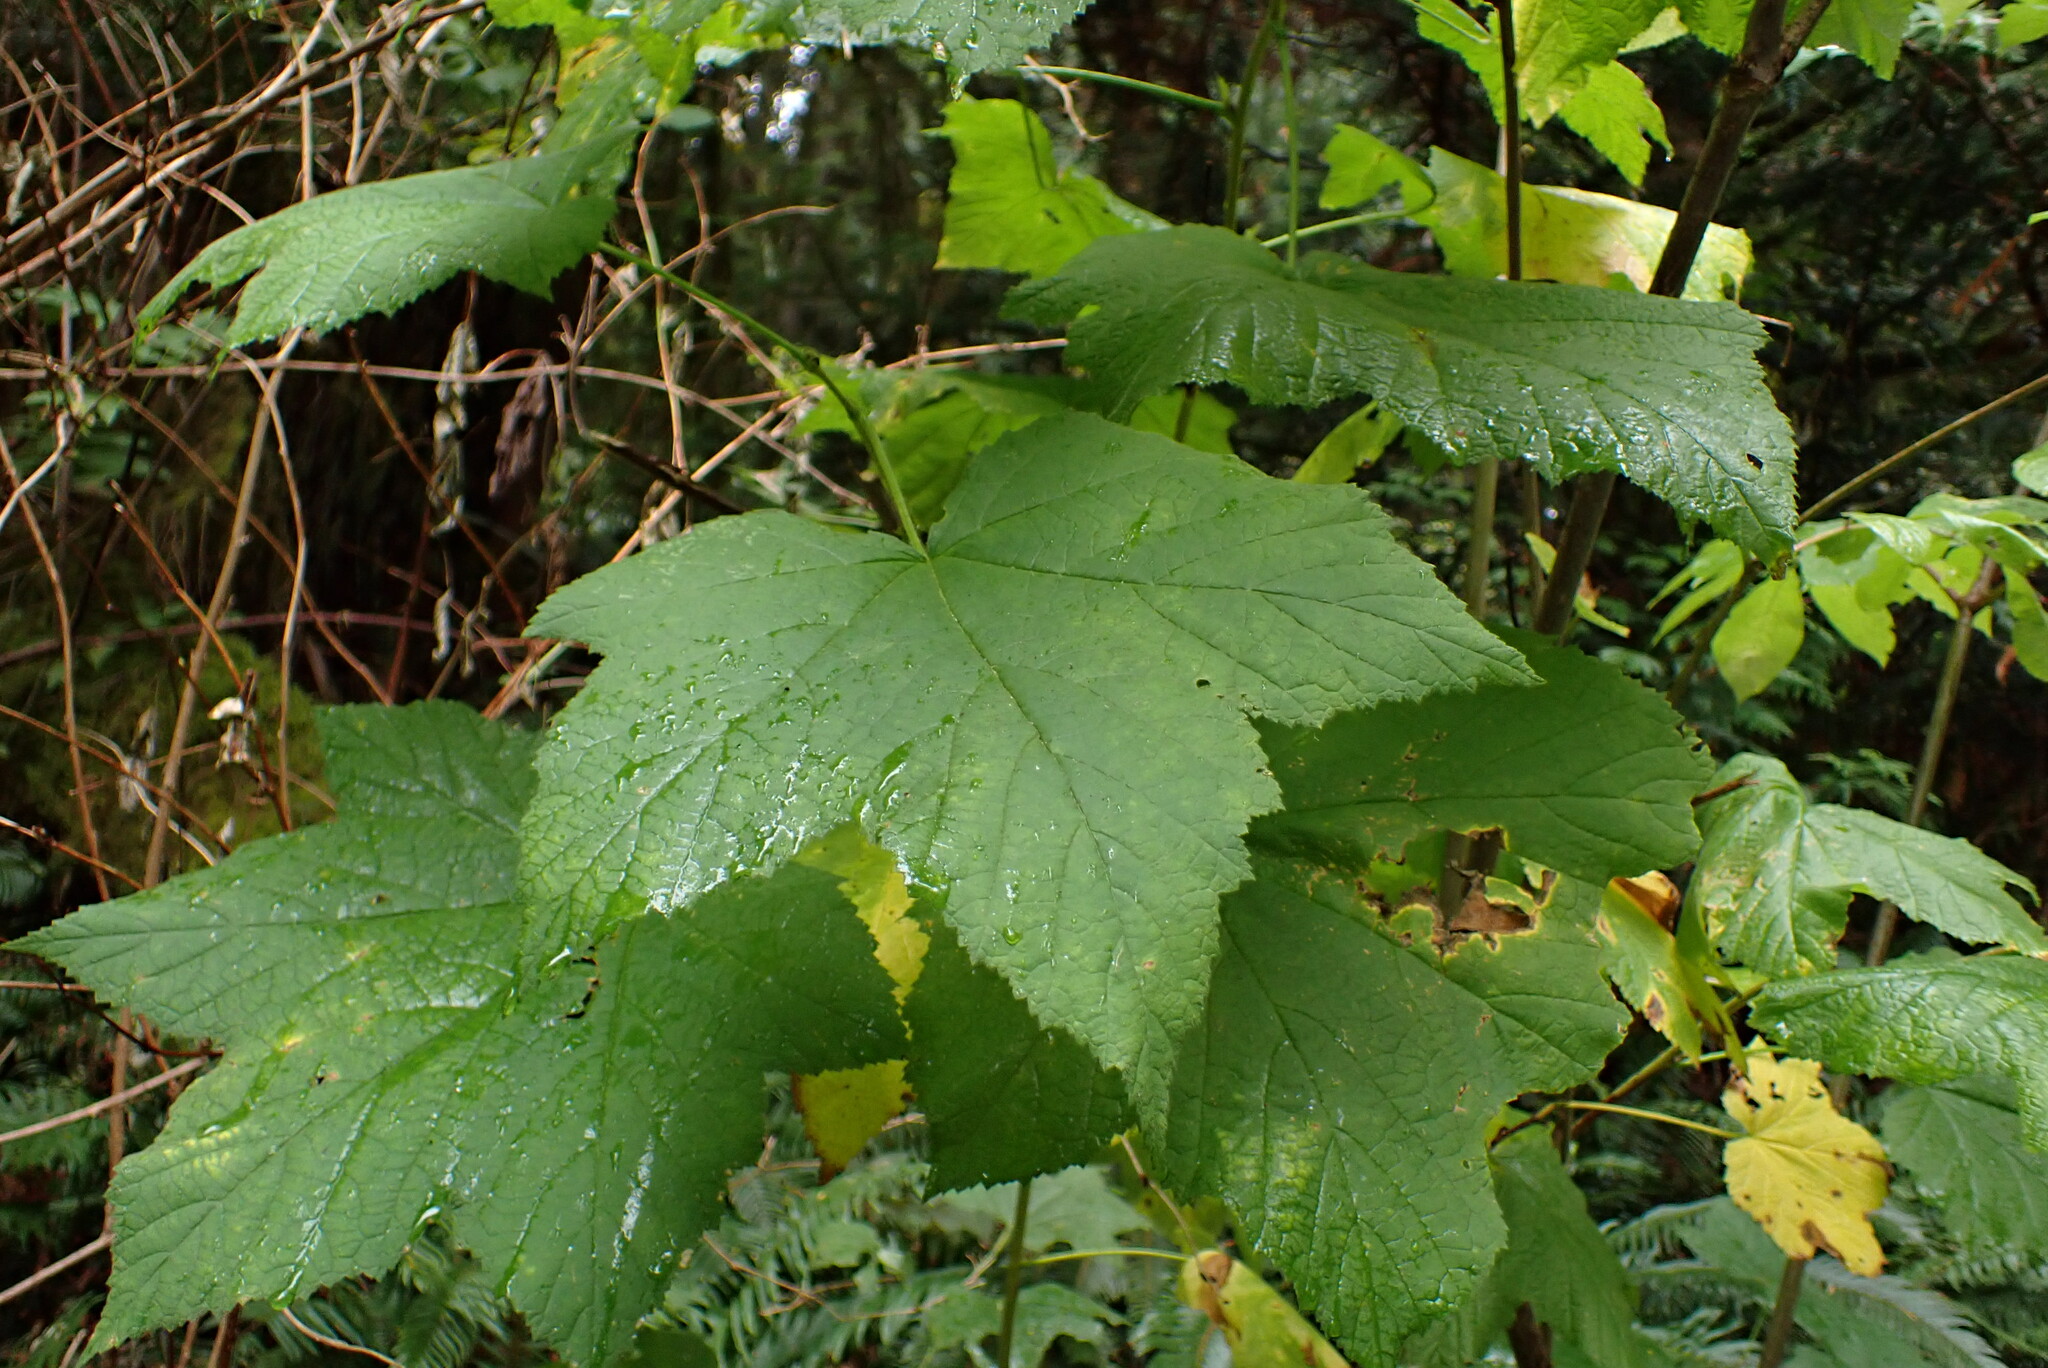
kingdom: Plantae
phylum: Tracheophyta
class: Magnoliopsida
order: Rosales
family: Rosaceae
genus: Rubus
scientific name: Rubus parviflorus
